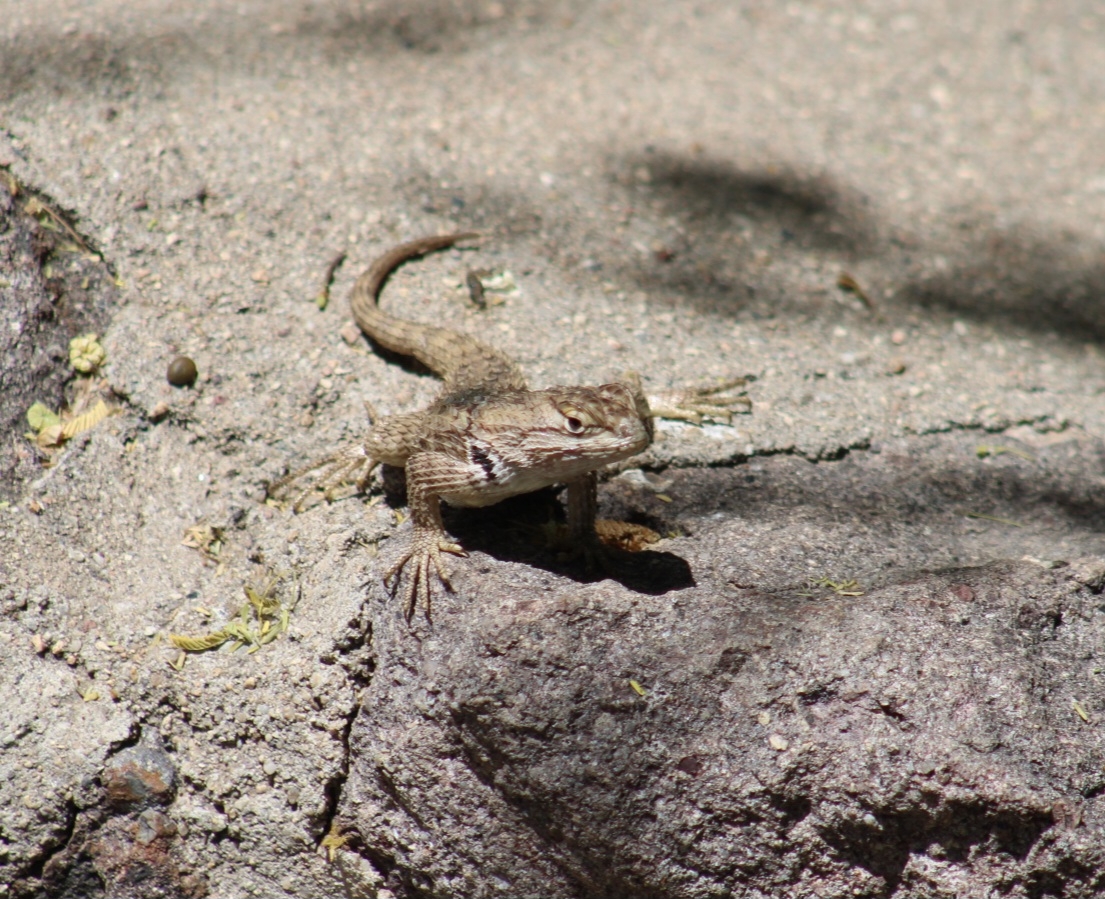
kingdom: Animalia
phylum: Chordata
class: Squamata
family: Phrynosomatidae
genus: Sceloporus
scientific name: Sceloporus magister
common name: Desert spiny lizard
